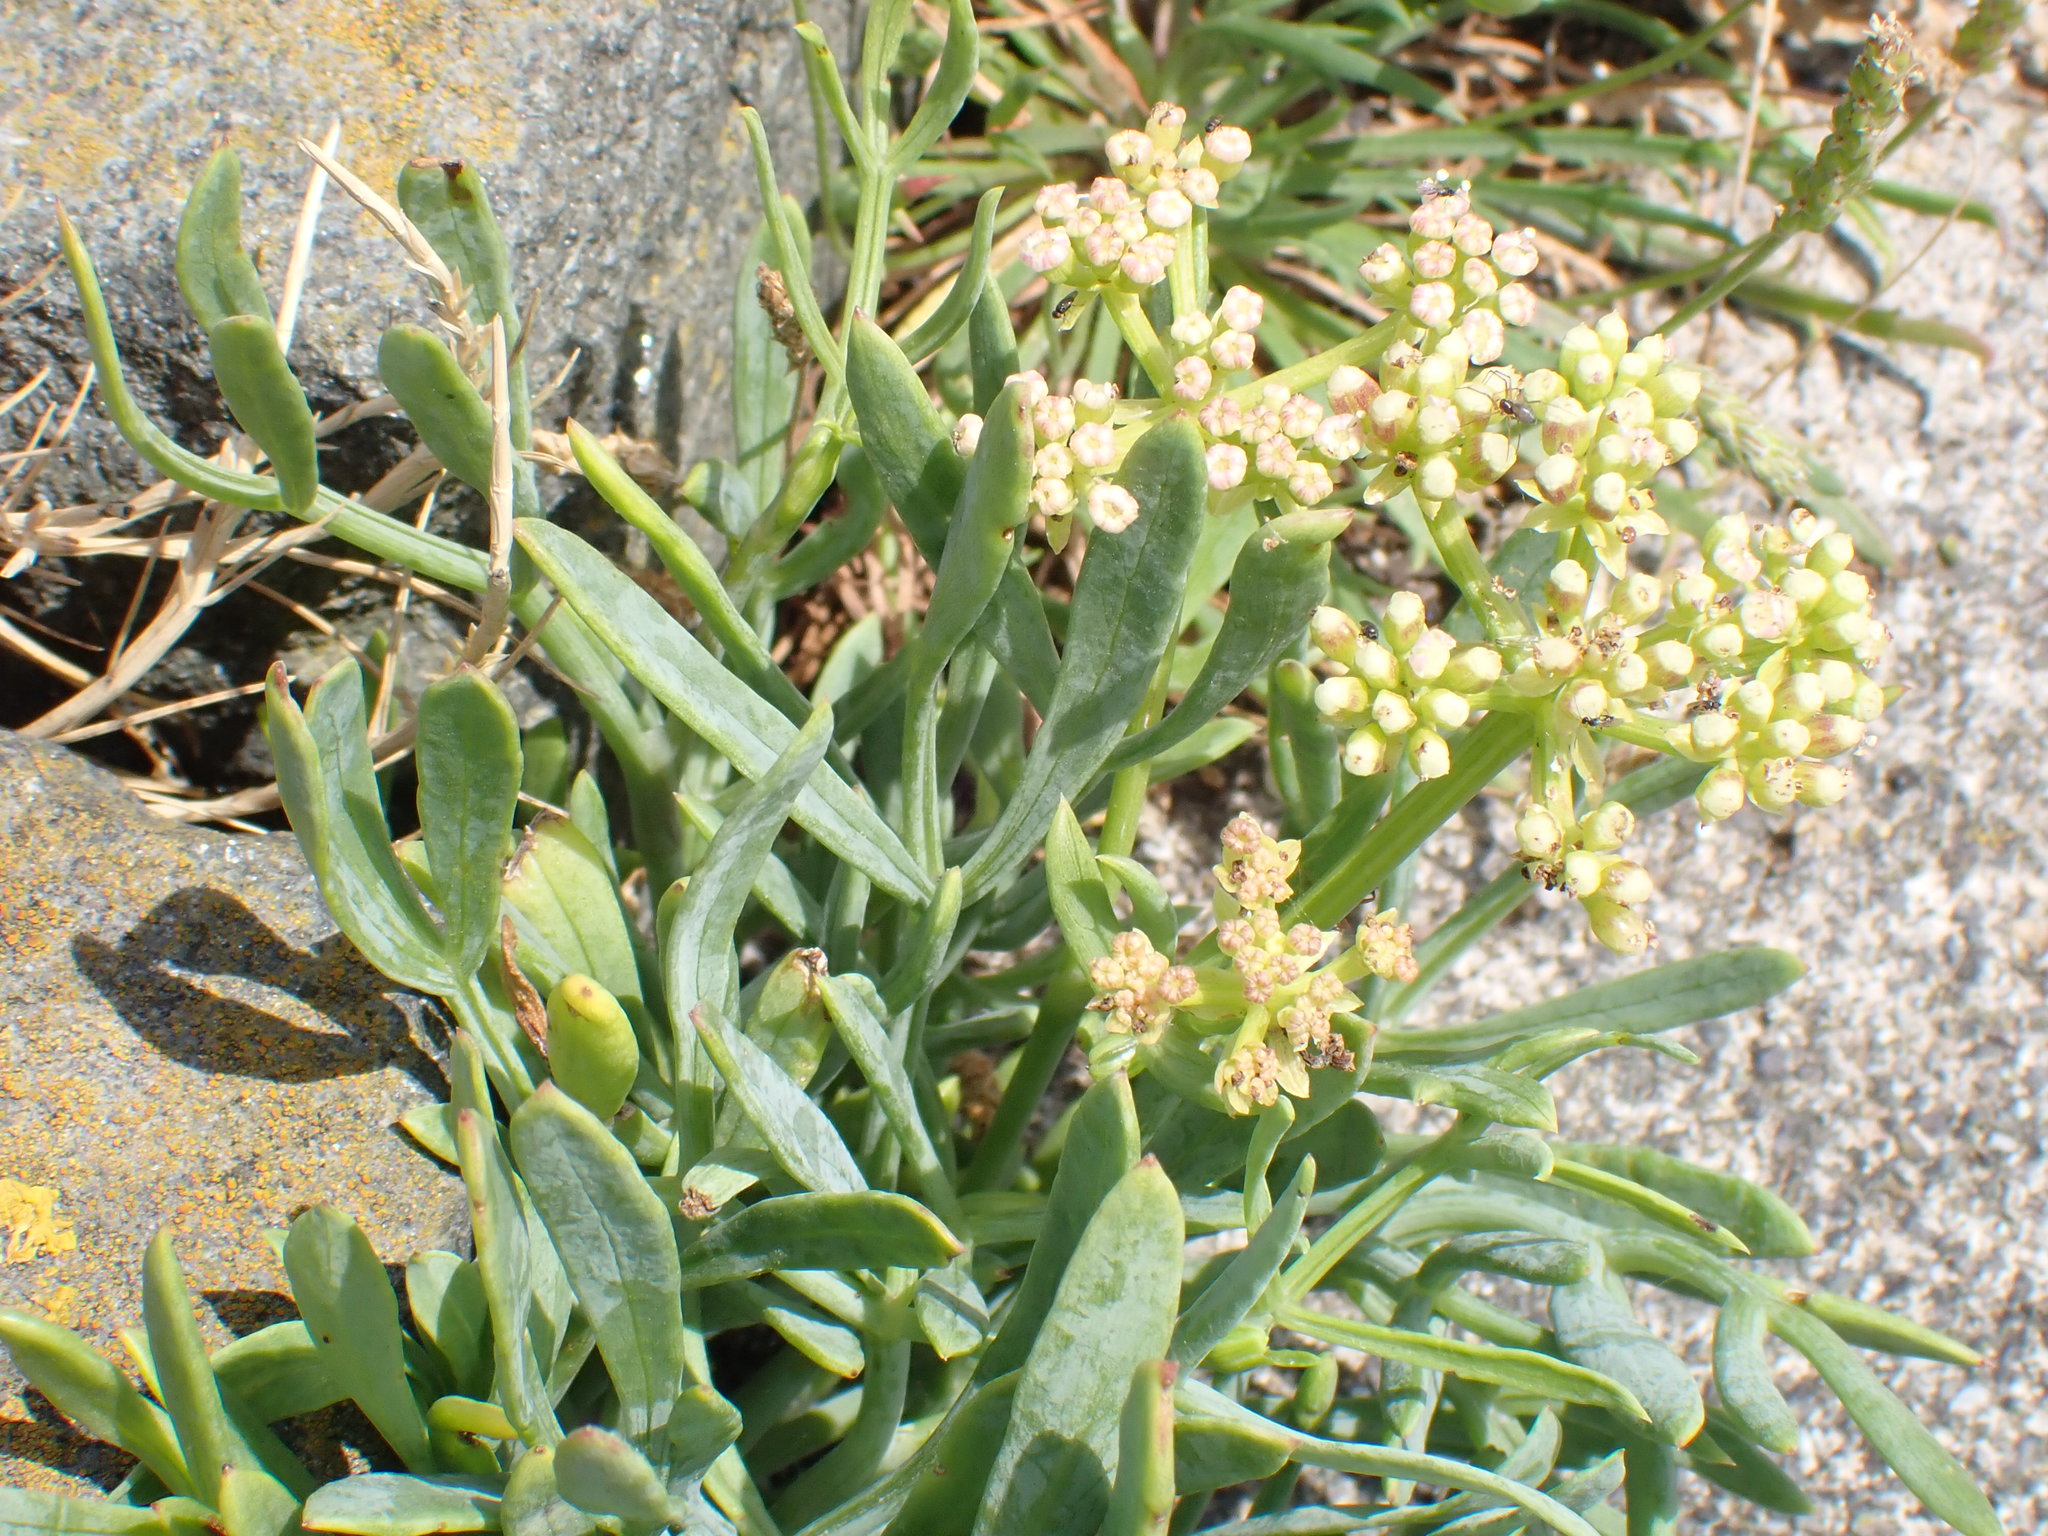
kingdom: Plantae
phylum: Tracheophyta
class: Magnoliopsida
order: Apiales
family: Apiaceae
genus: Crithmum
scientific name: Crithmum maritimum
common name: Rock samphire
